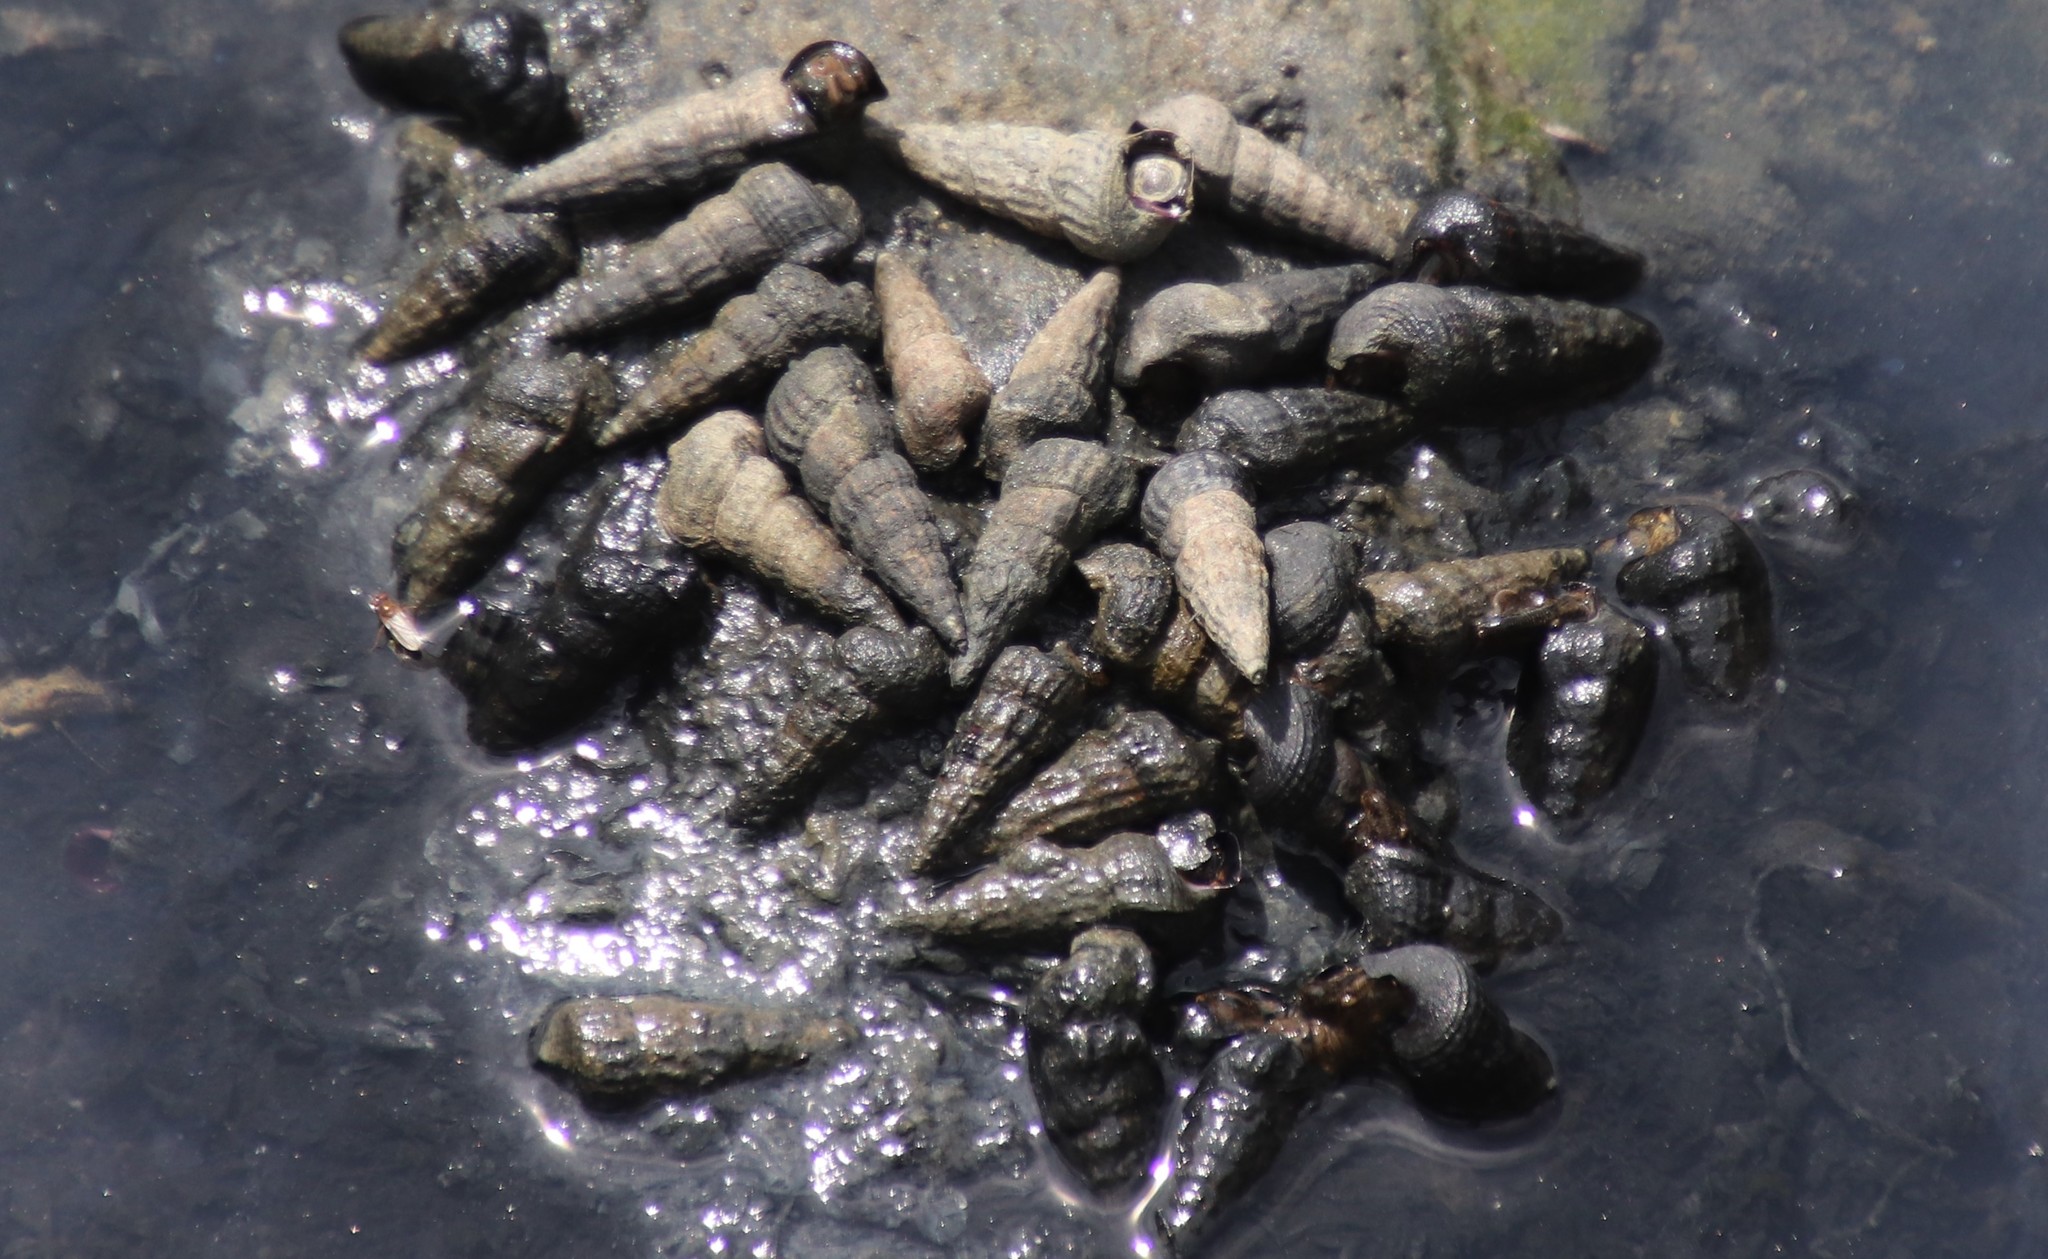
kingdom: Animalia
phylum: Mollusca
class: Gastropoda
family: Potamididae
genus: Cerithideopsis
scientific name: Cerithideopsis californica
